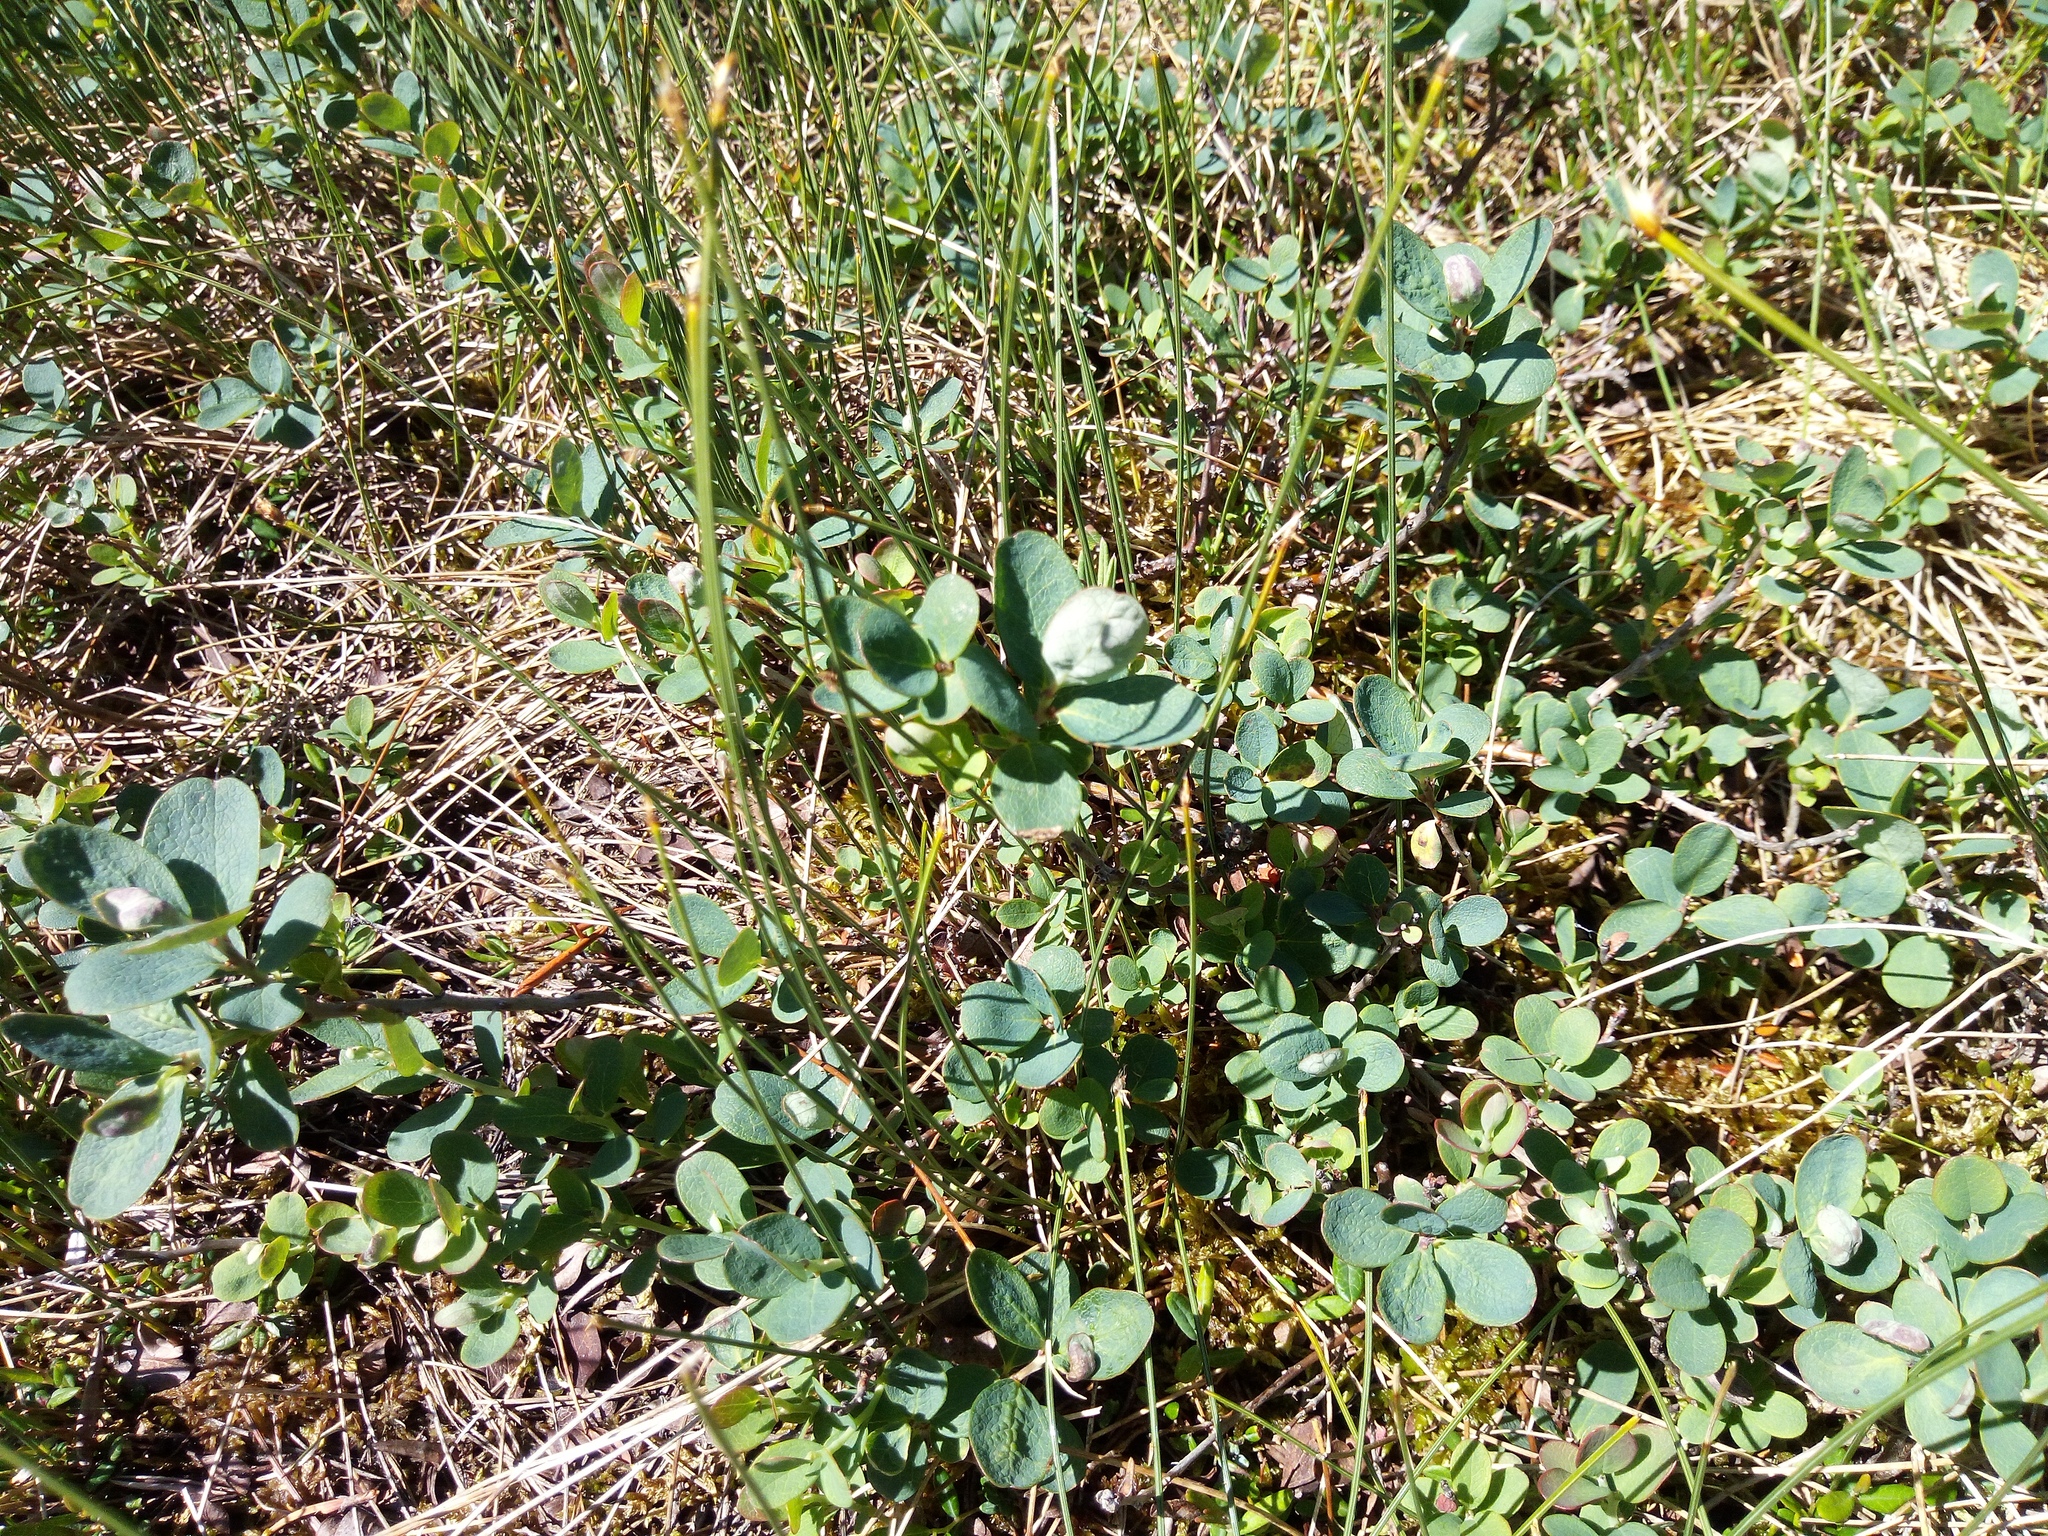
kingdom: Plantae
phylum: Tracheophyta
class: Magnoliopsida
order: Ericales
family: Ericaceae
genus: Vaccinium
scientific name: Vaccinium uliginosum
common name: Bog bilberry
